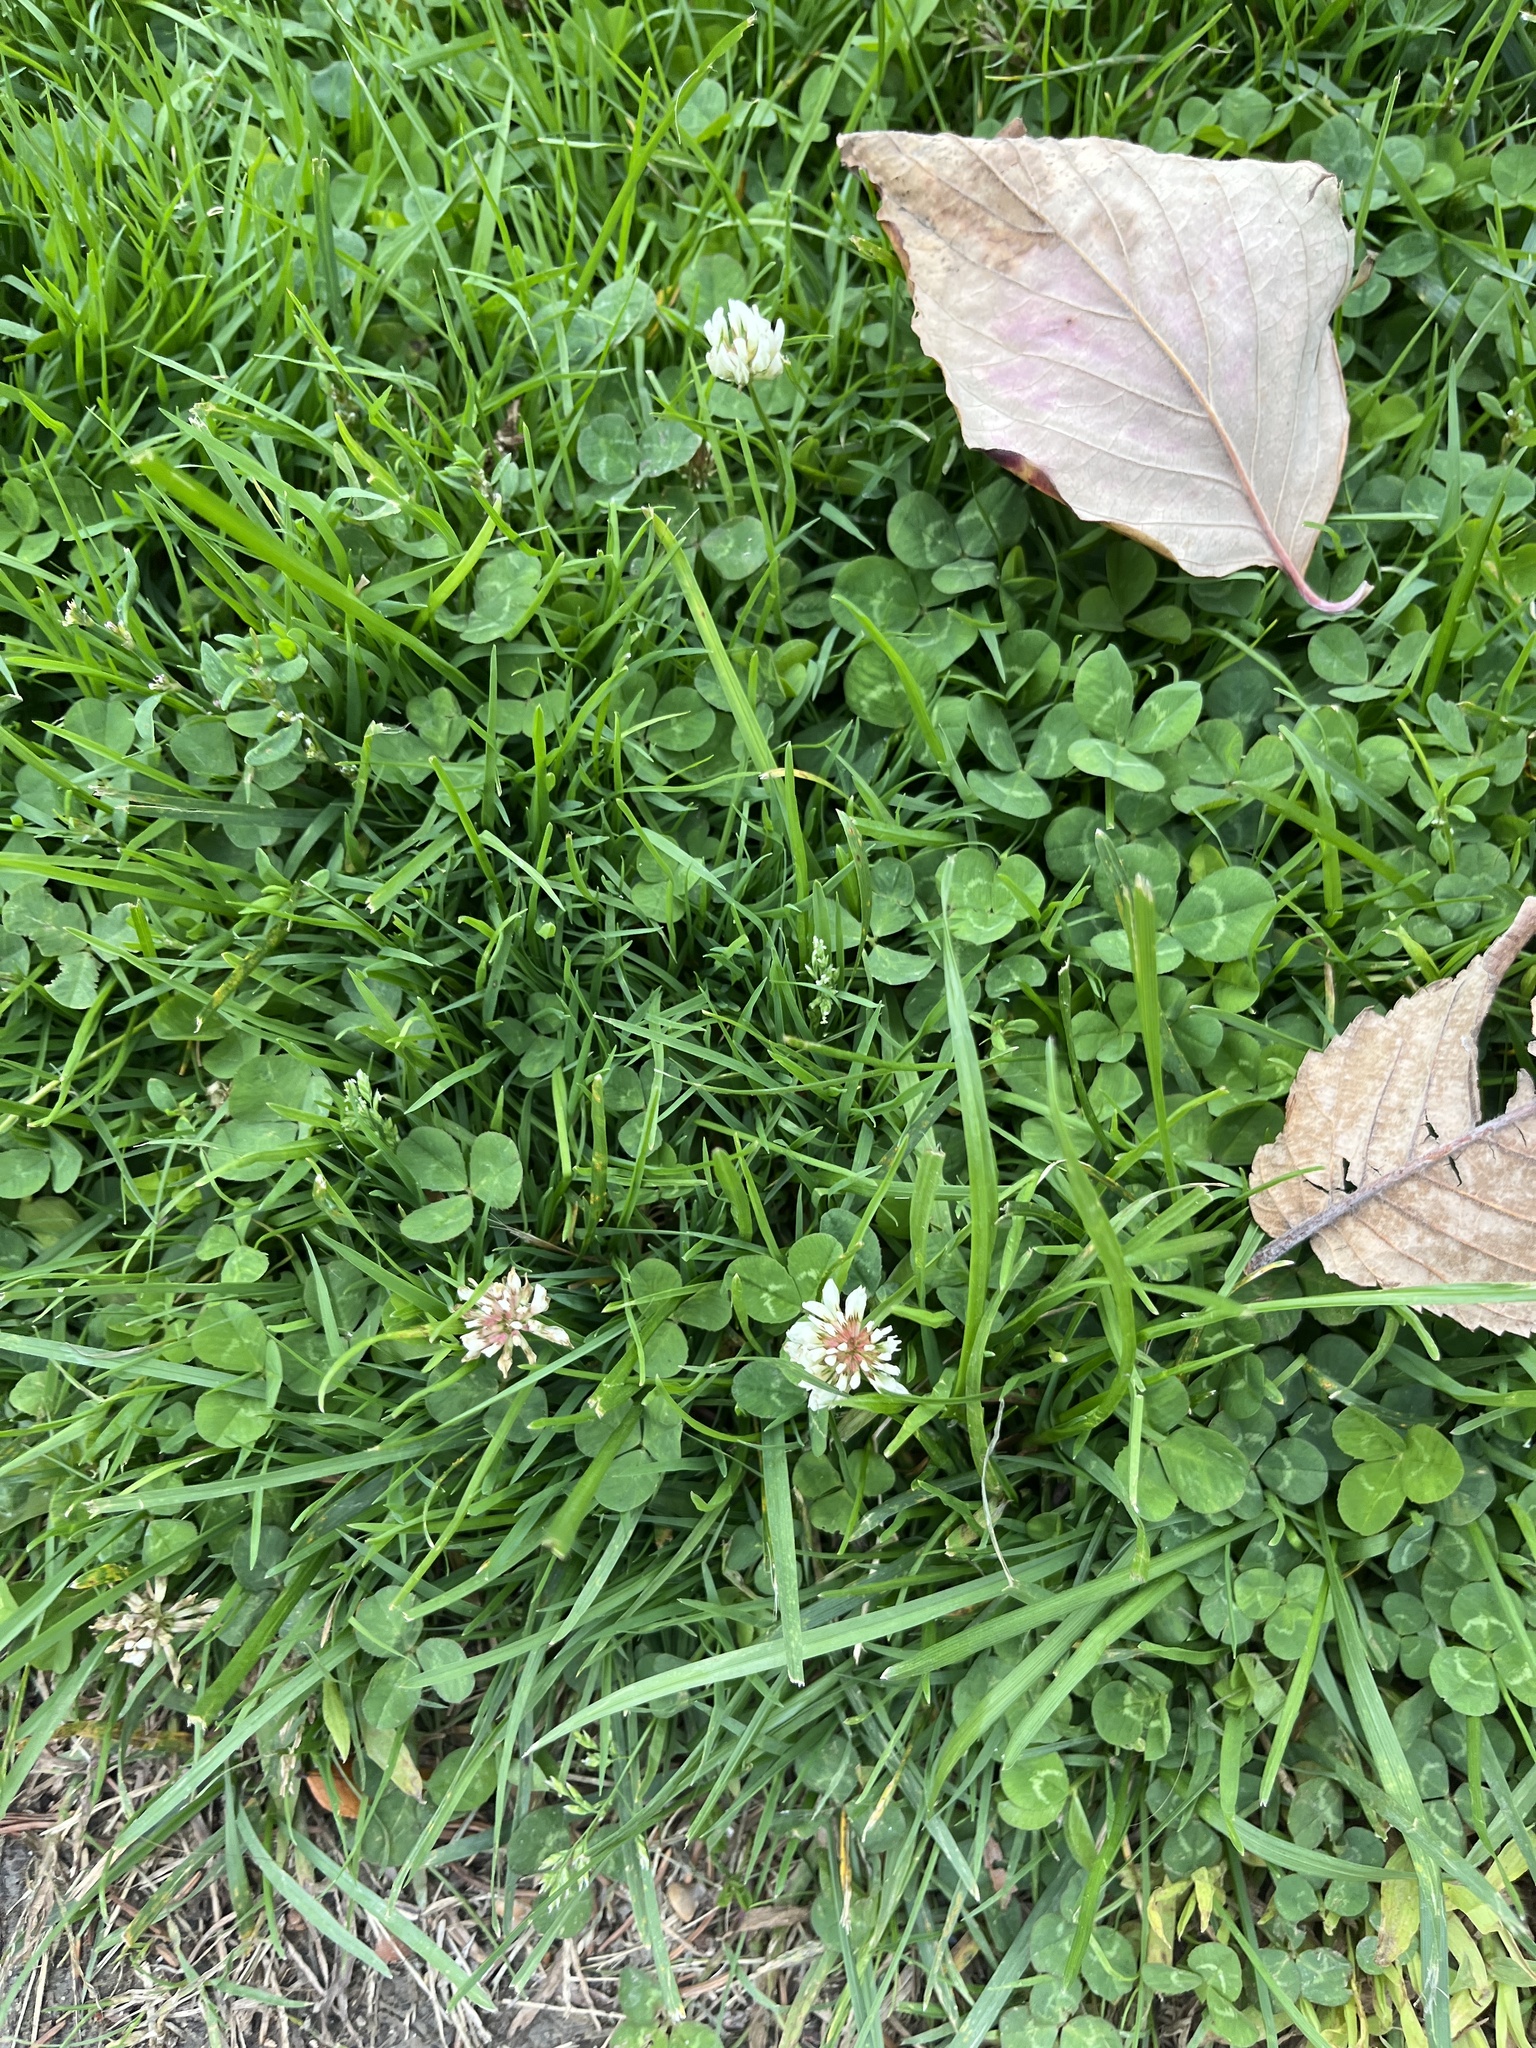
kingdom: Plantae
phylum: Tracheophyta
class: Magnoliopsida
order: Fabales
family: Fabaceae
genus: Trifolium
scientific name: Trifolium repens
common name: White clover
